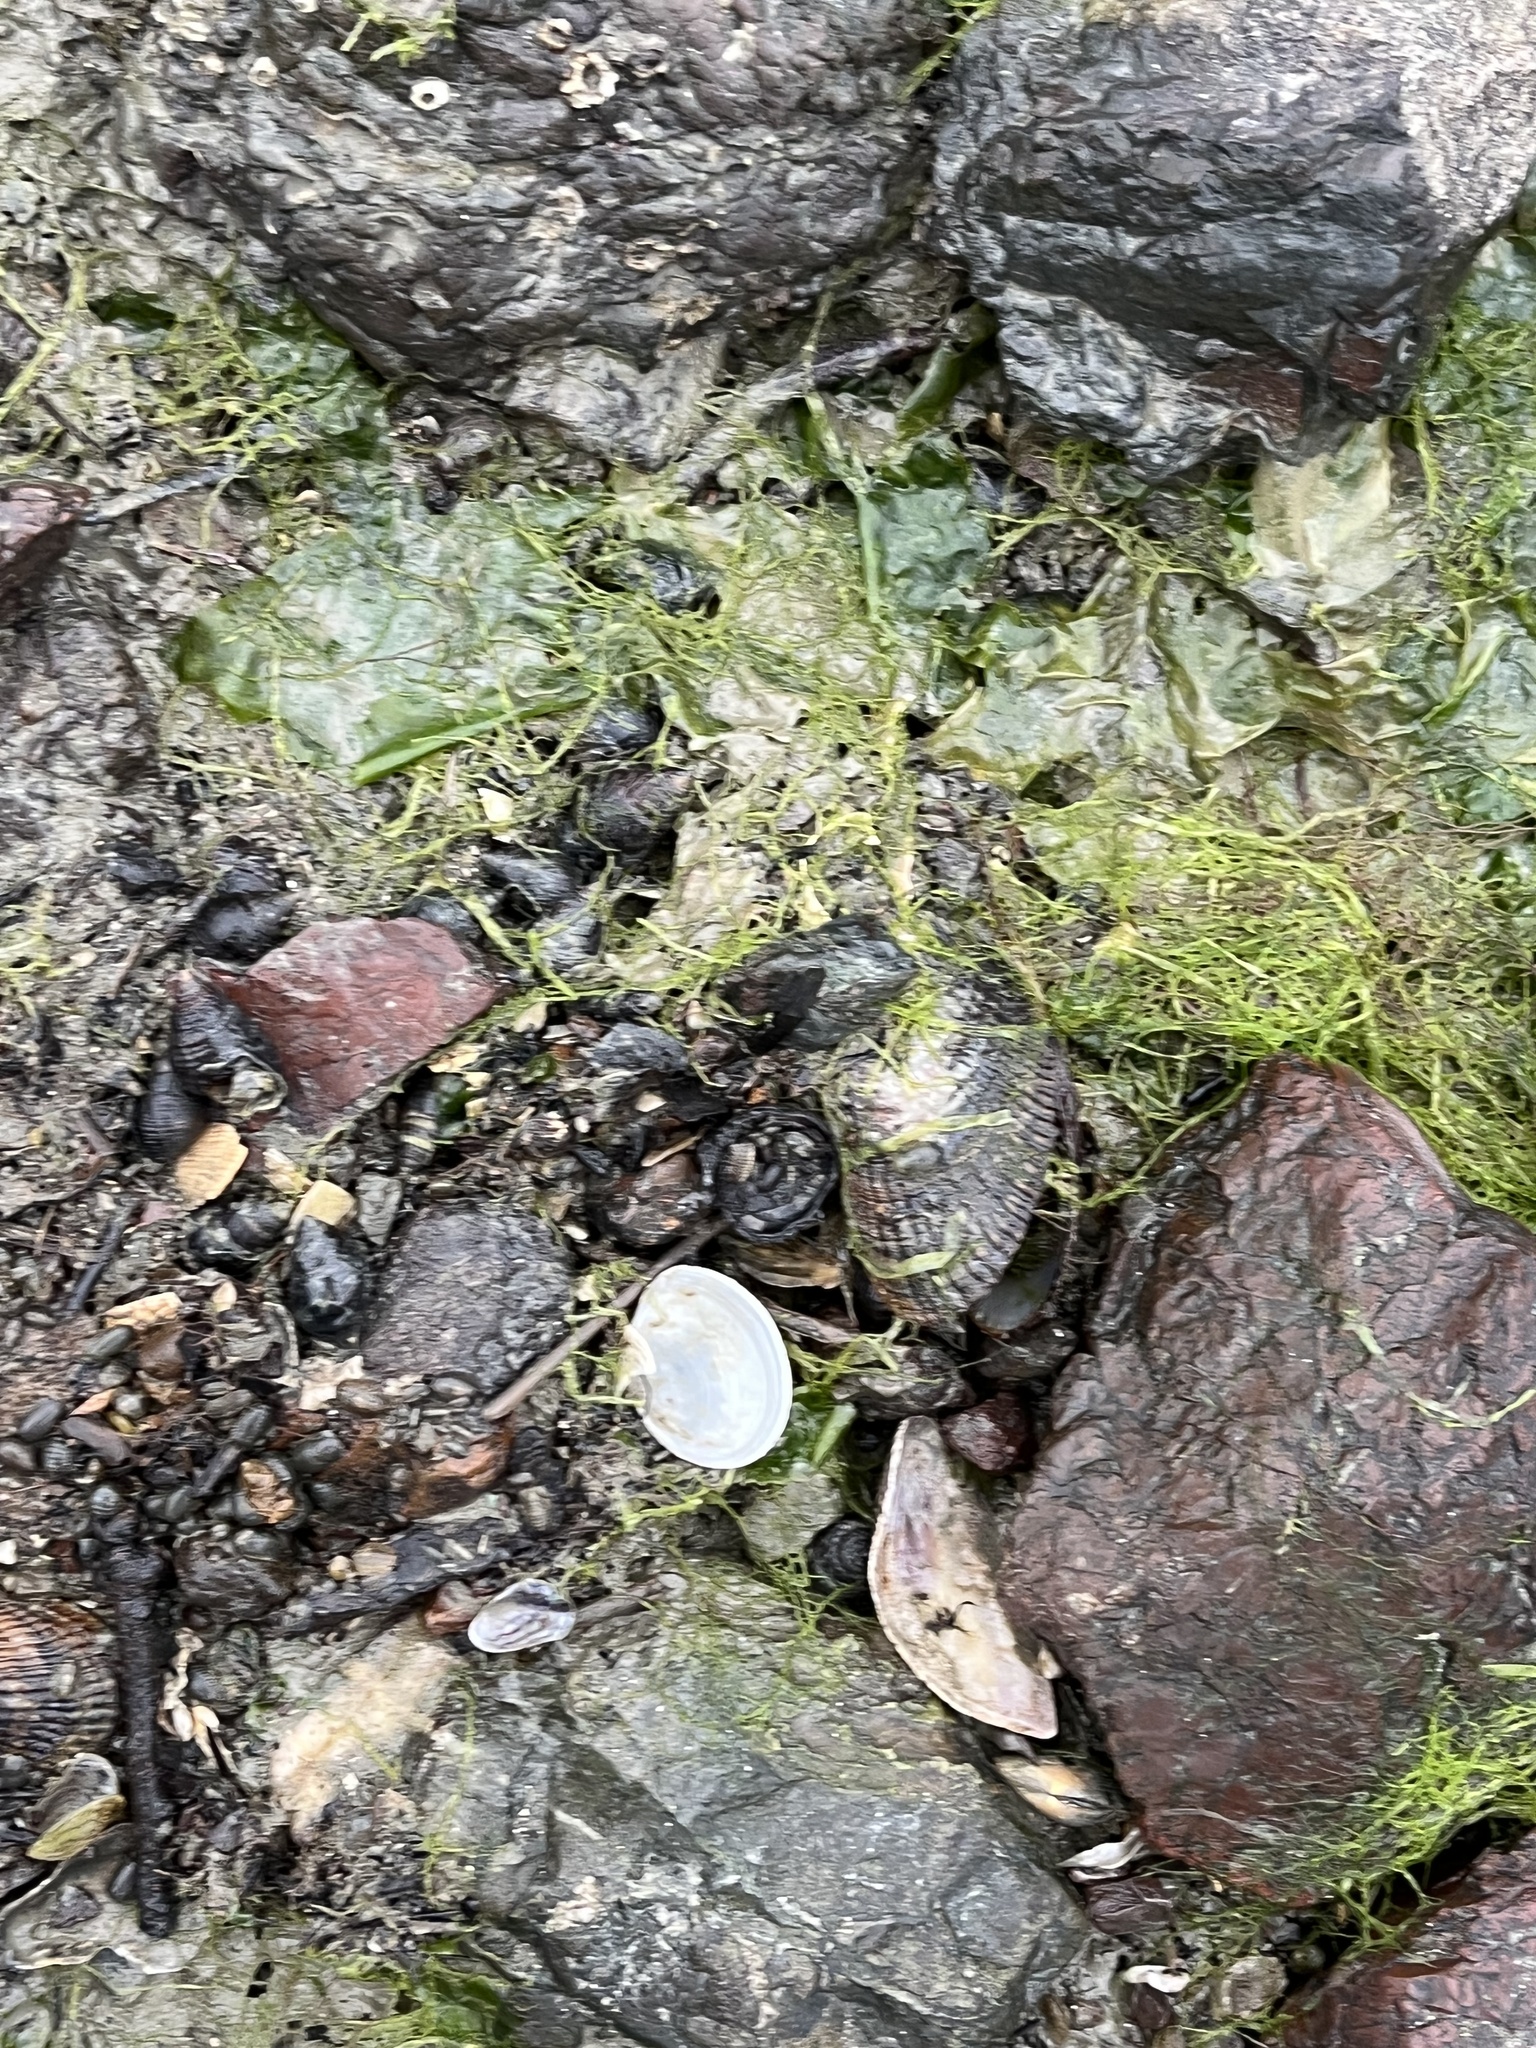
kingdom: Animalia
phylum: Mollusca
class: Bivalvia
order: Mytilida
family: Mytilidae
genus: Geukensia
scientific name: Geukensia demissa
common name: Ribbed mussel
